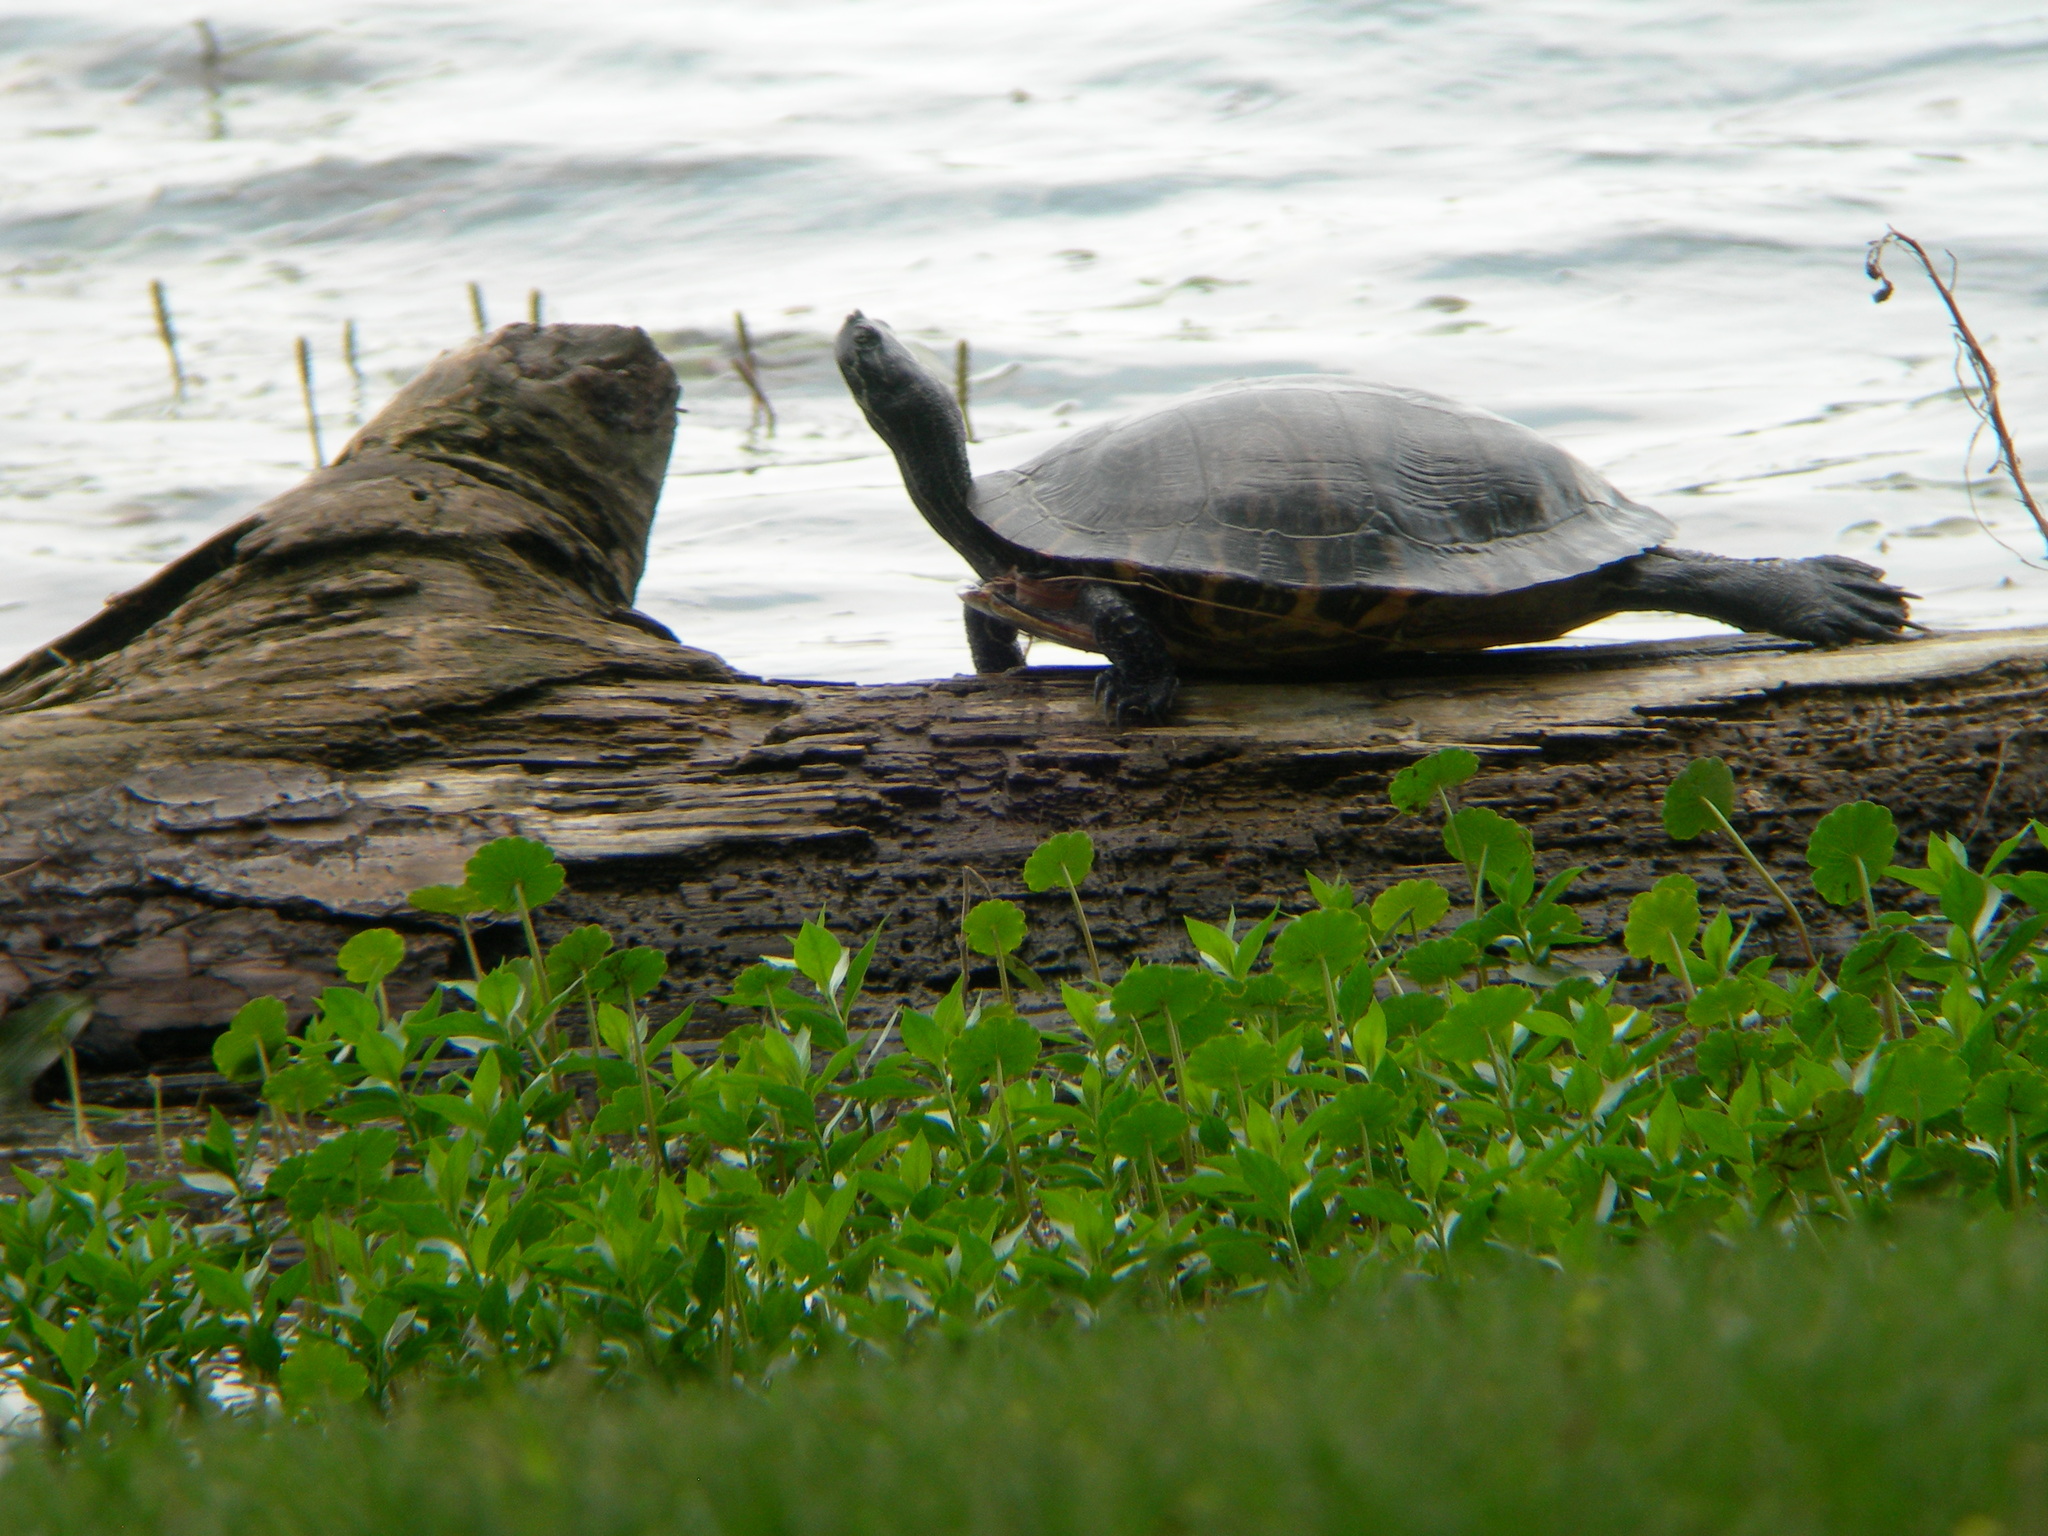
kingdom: Animalia
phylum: Chordata
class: Testudines
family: Emydidae
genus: Pseudemys
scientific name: Pseudemys concinna
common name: Eastern river cooter
